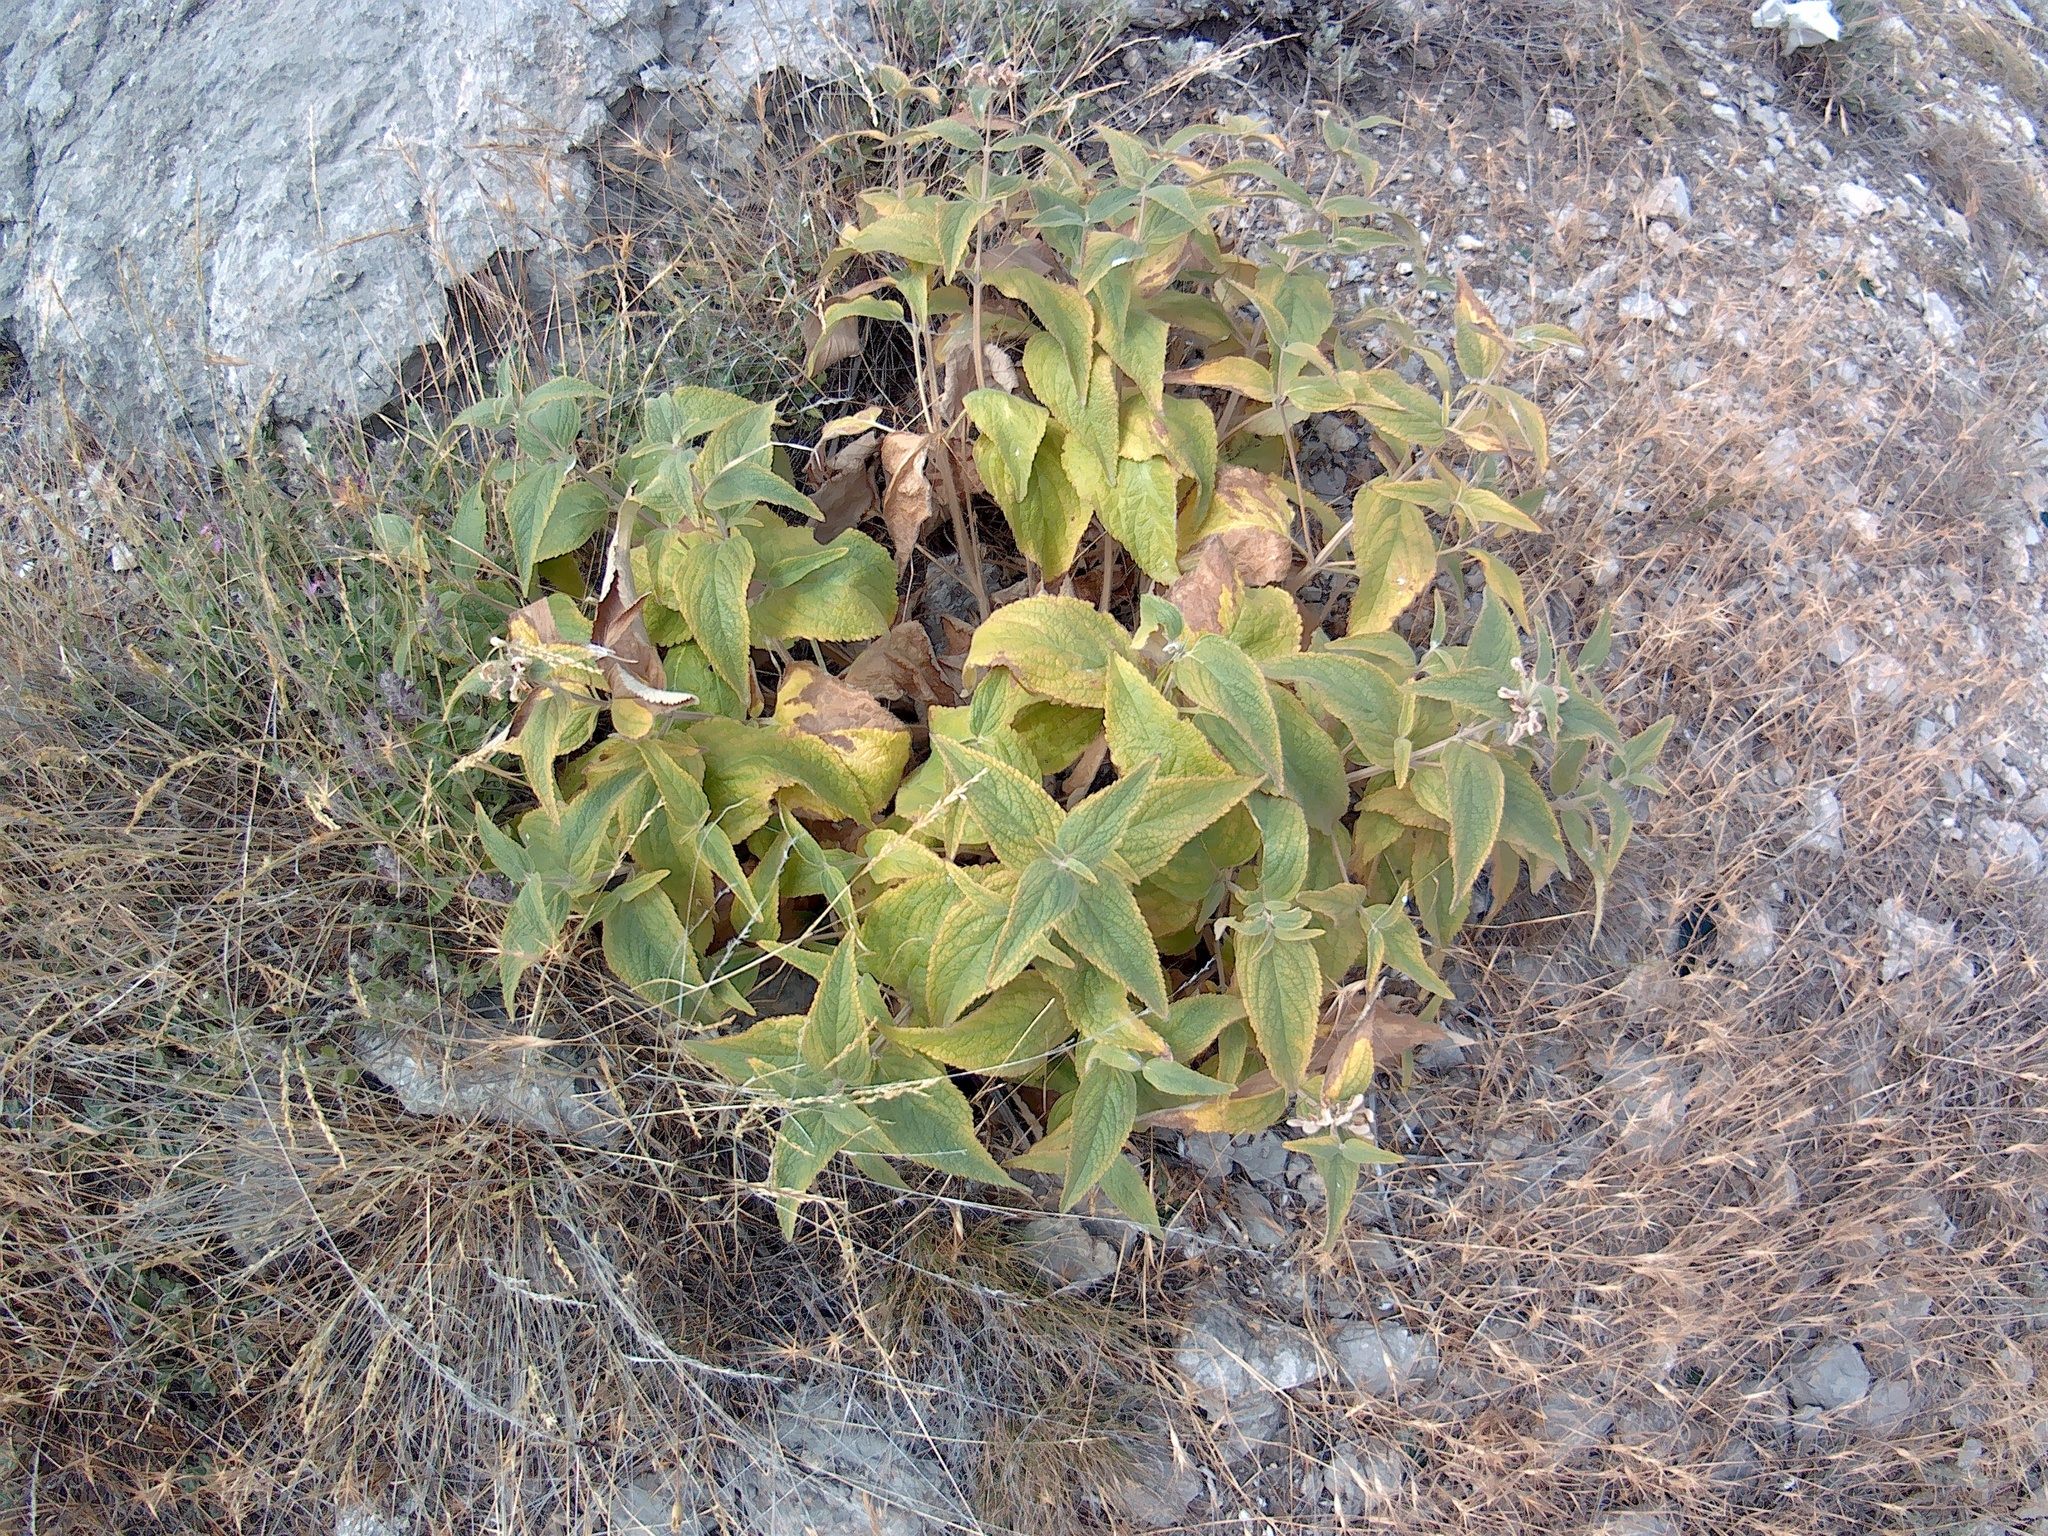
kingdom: Plantae
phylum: Tracheophyta
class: Magnoliopsida
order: Lamiales
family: Lamiaceae
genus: Phlomis
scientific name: Phlomis herba-venti
